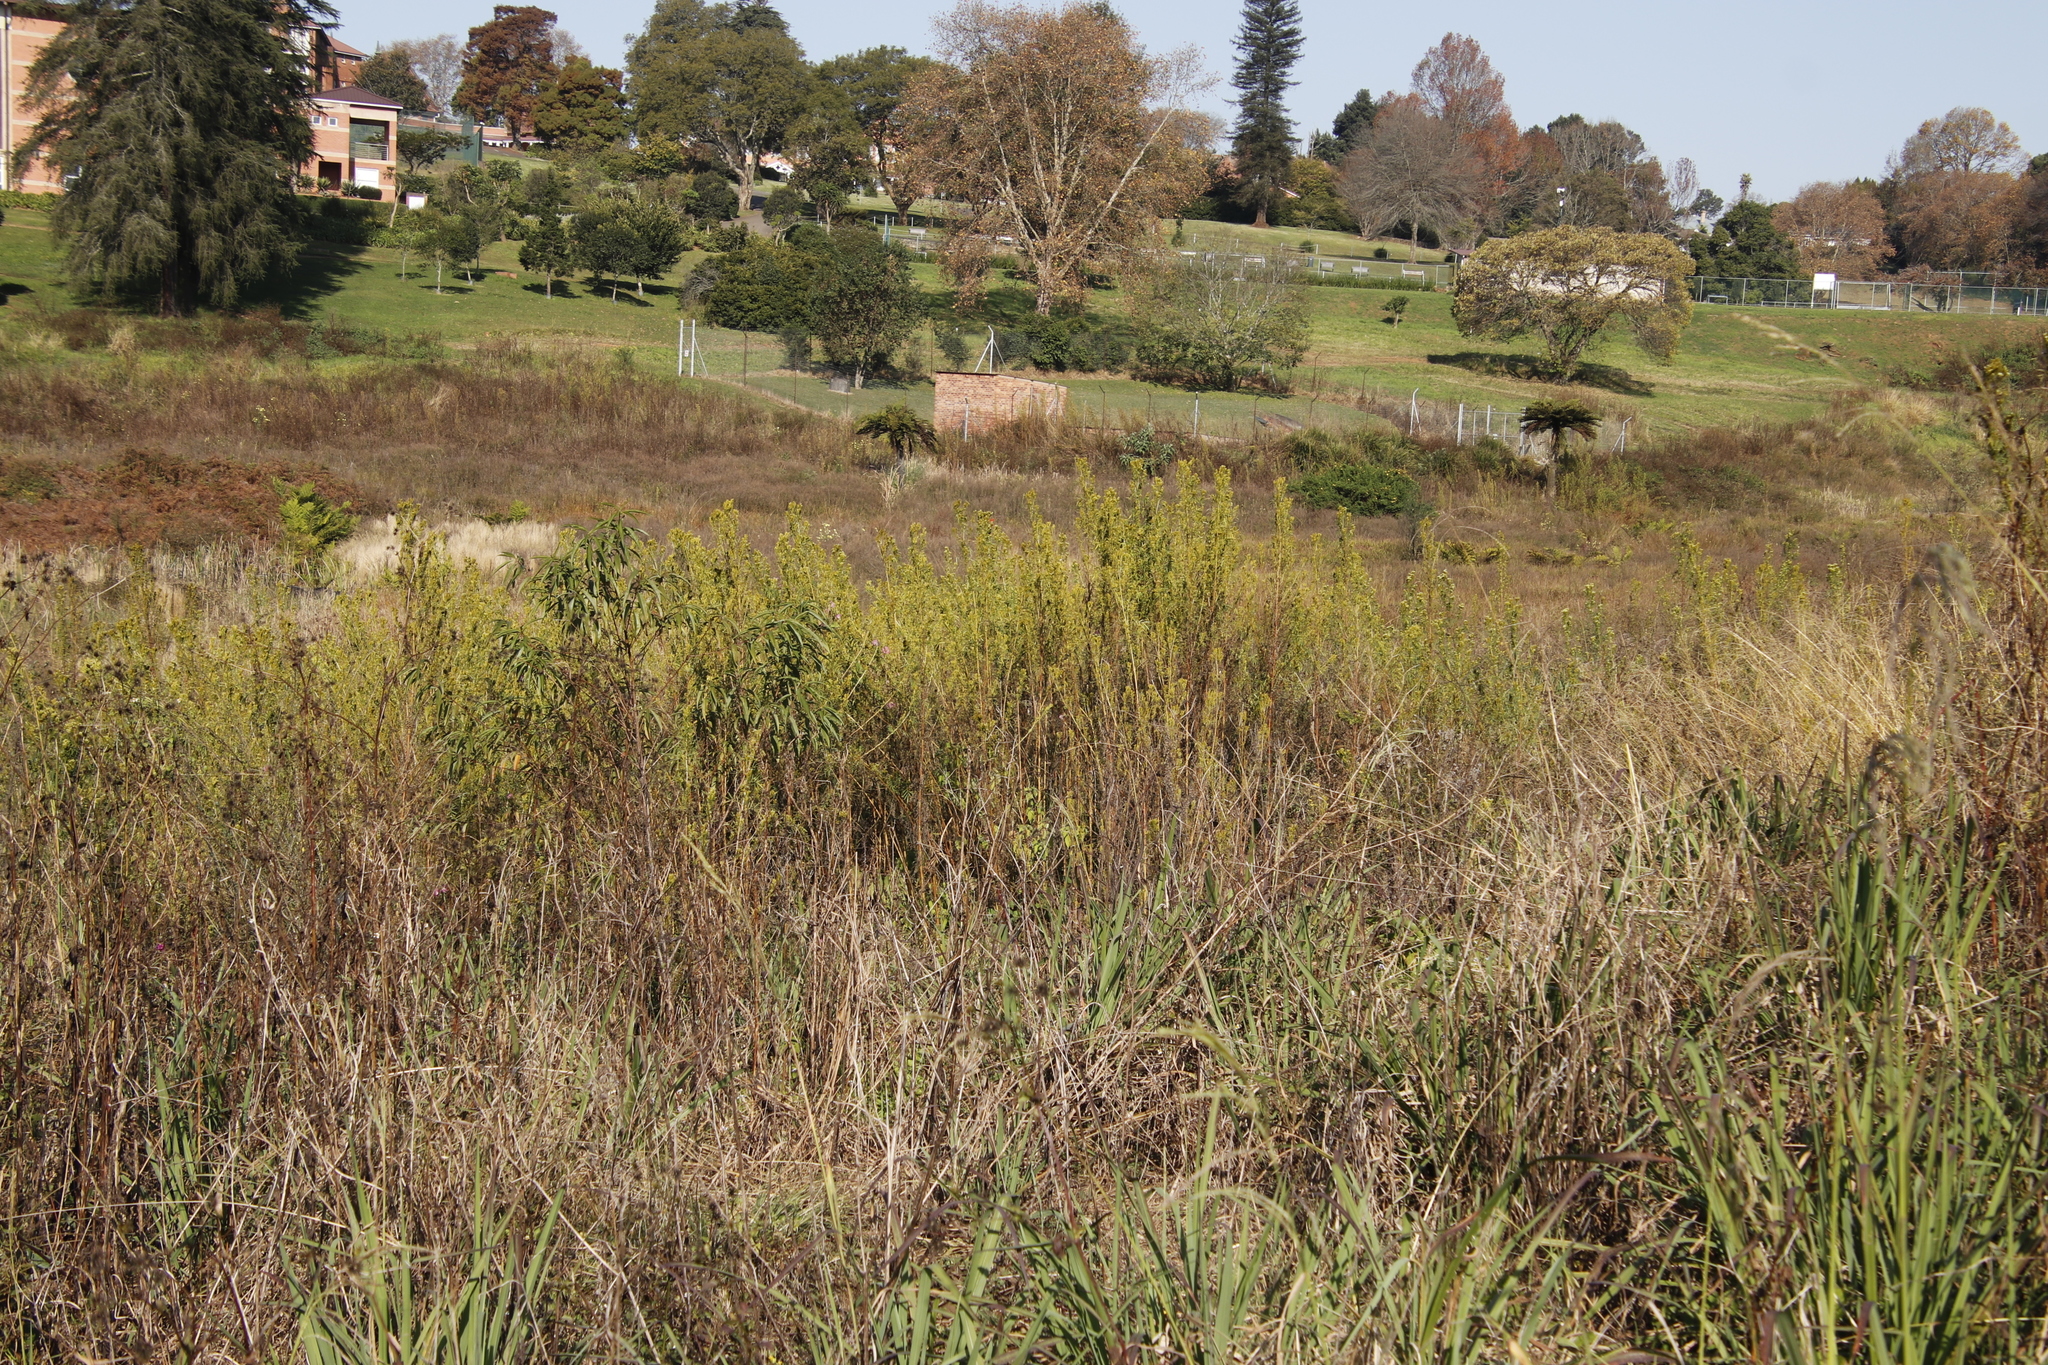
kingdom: Plantae
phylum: Tracheophyta
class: Magnoliopsida
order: Asterales
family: Asteraceae
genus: Tagetes
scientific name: Tagetes minuta
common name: Muster john henry
